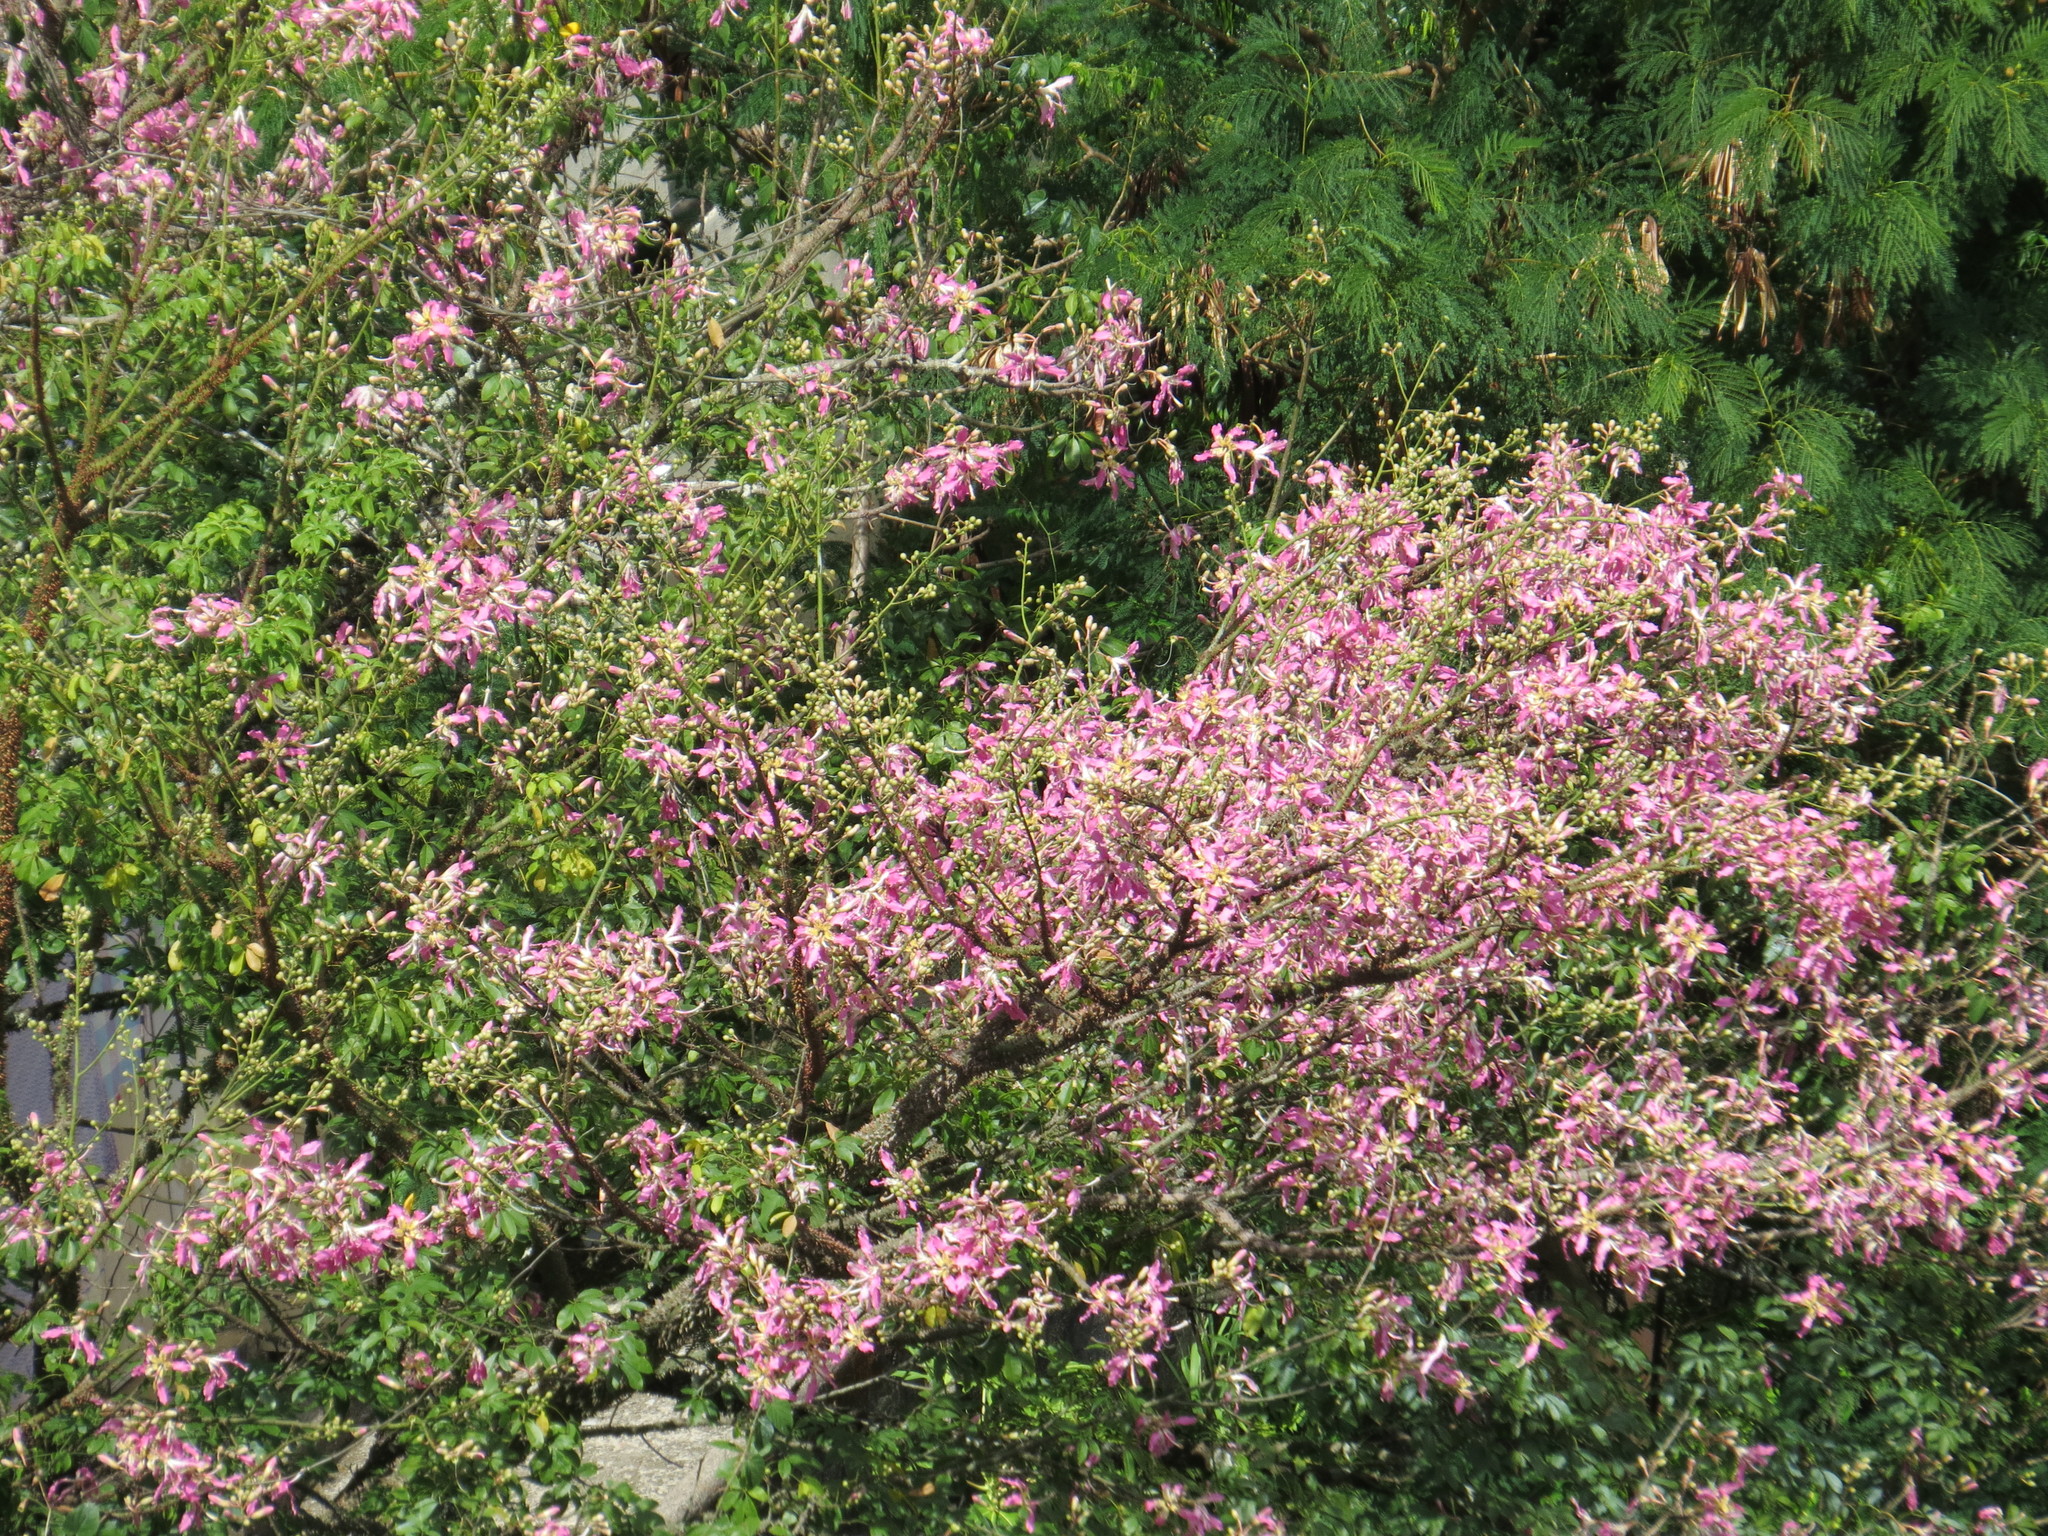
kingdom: Plantae
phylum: Tracheophyta
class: Magnoliopsida
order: Malvales
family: Malvaceae
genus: Ceiba
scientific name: Ceiba speciosa
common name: Silk-floss tree
